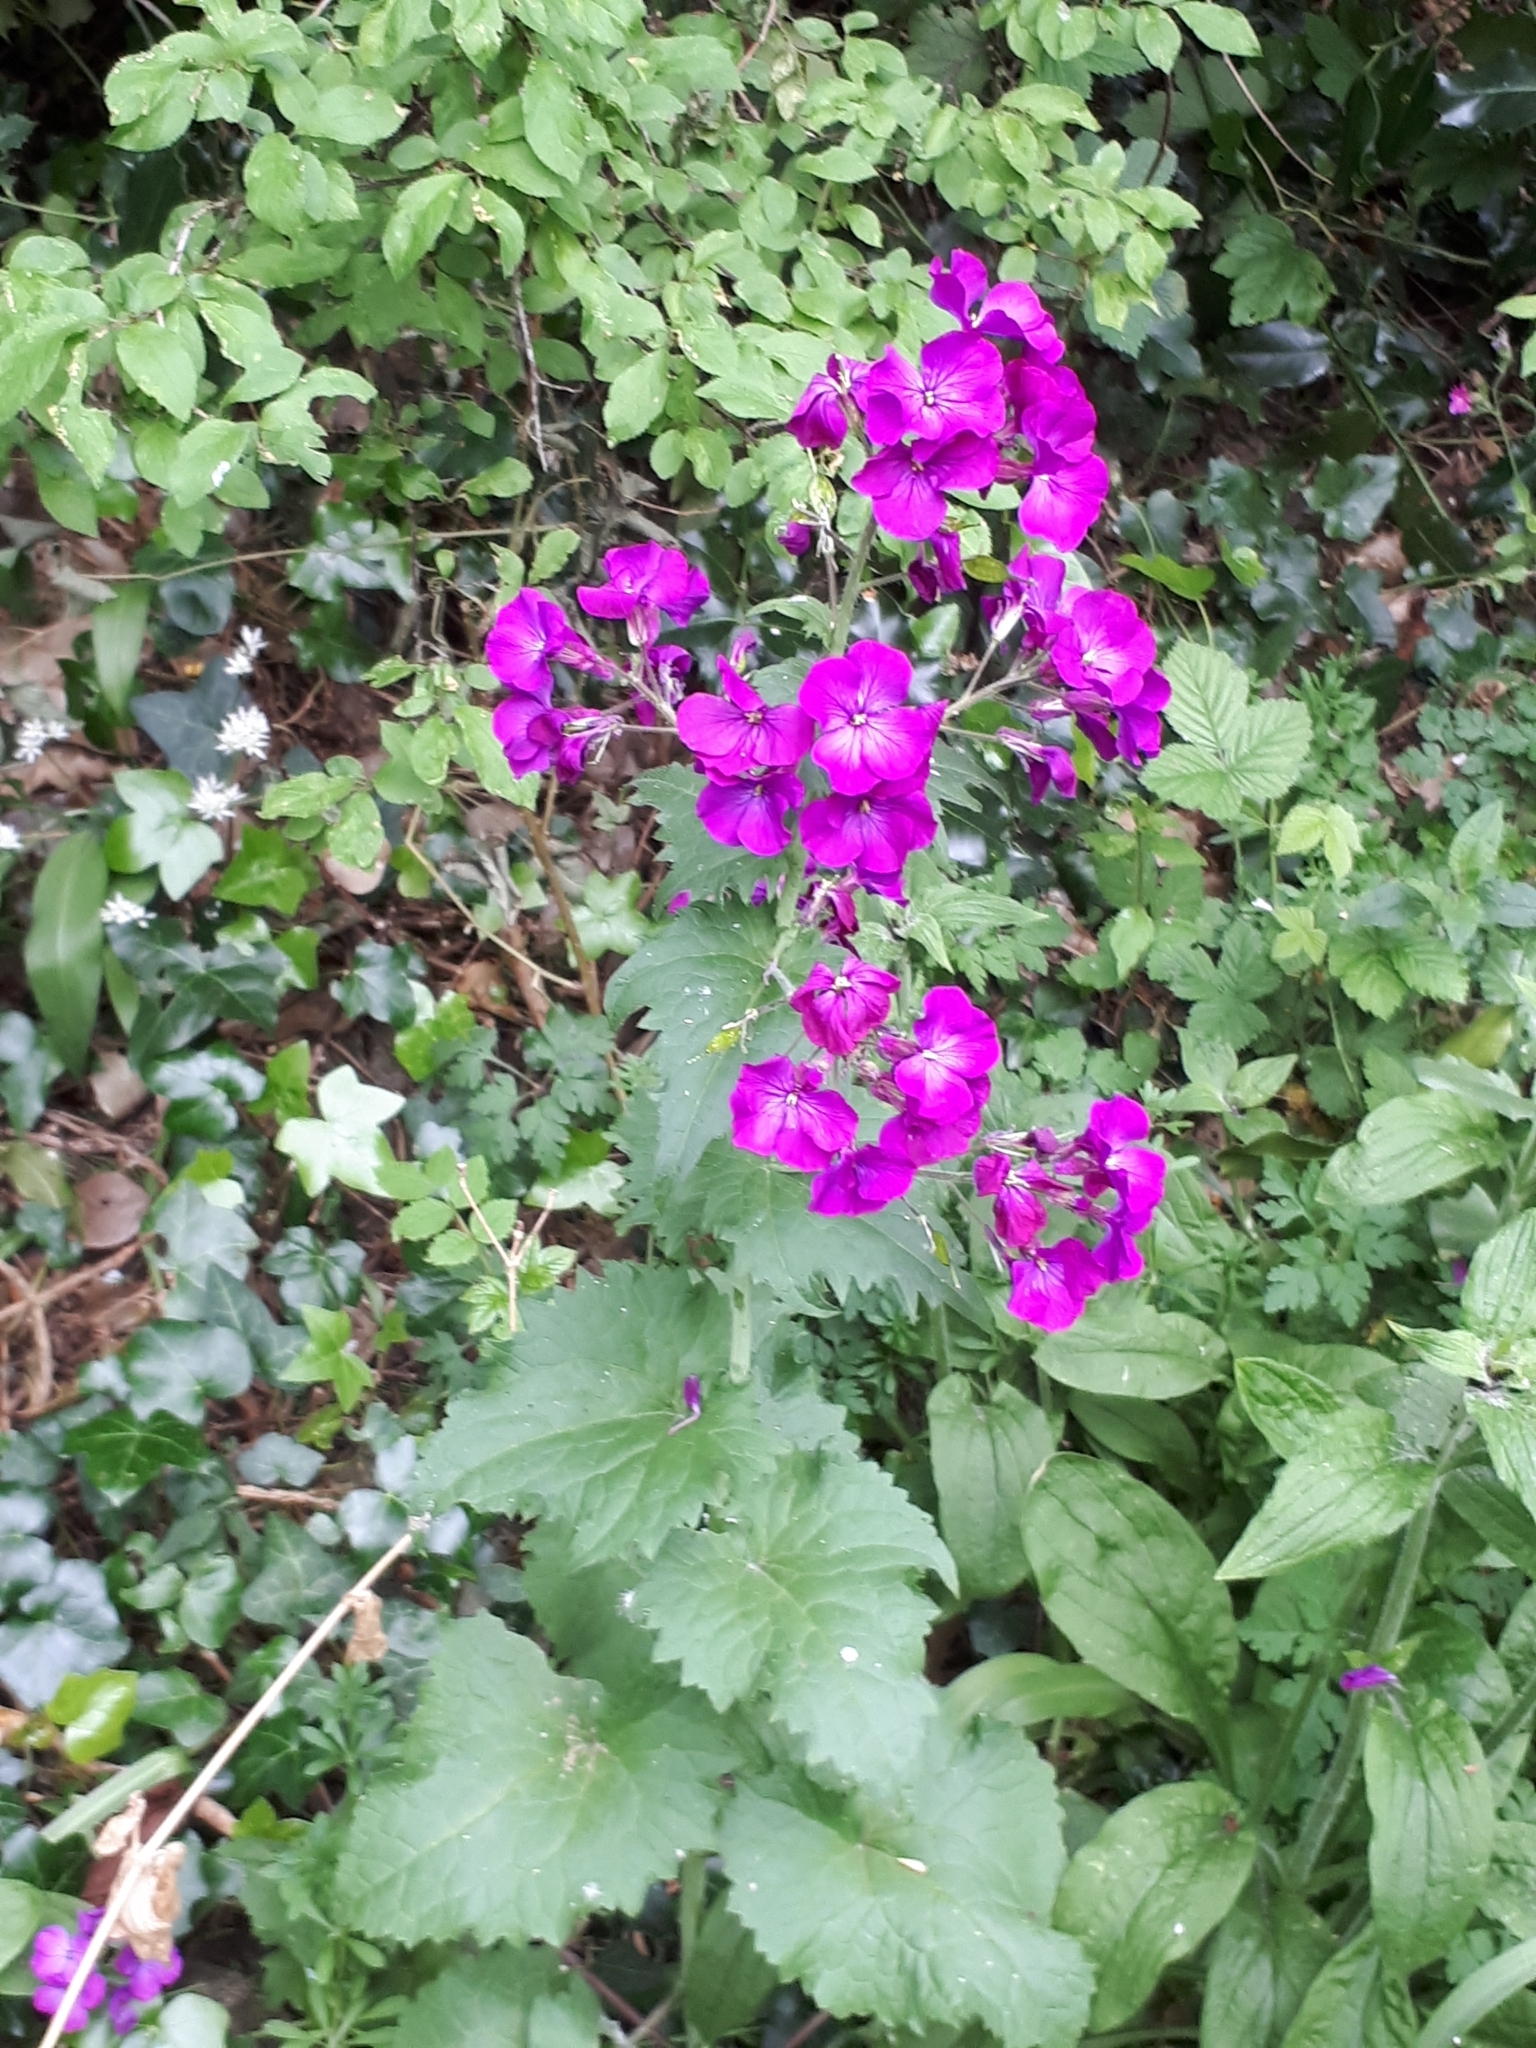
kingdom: Plantae
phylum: Tracheophyta
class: Magnoliopsida
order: Brassicales
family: Brassicaceae
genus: Lunaria
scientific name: Lunaria annua
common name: Honesty
